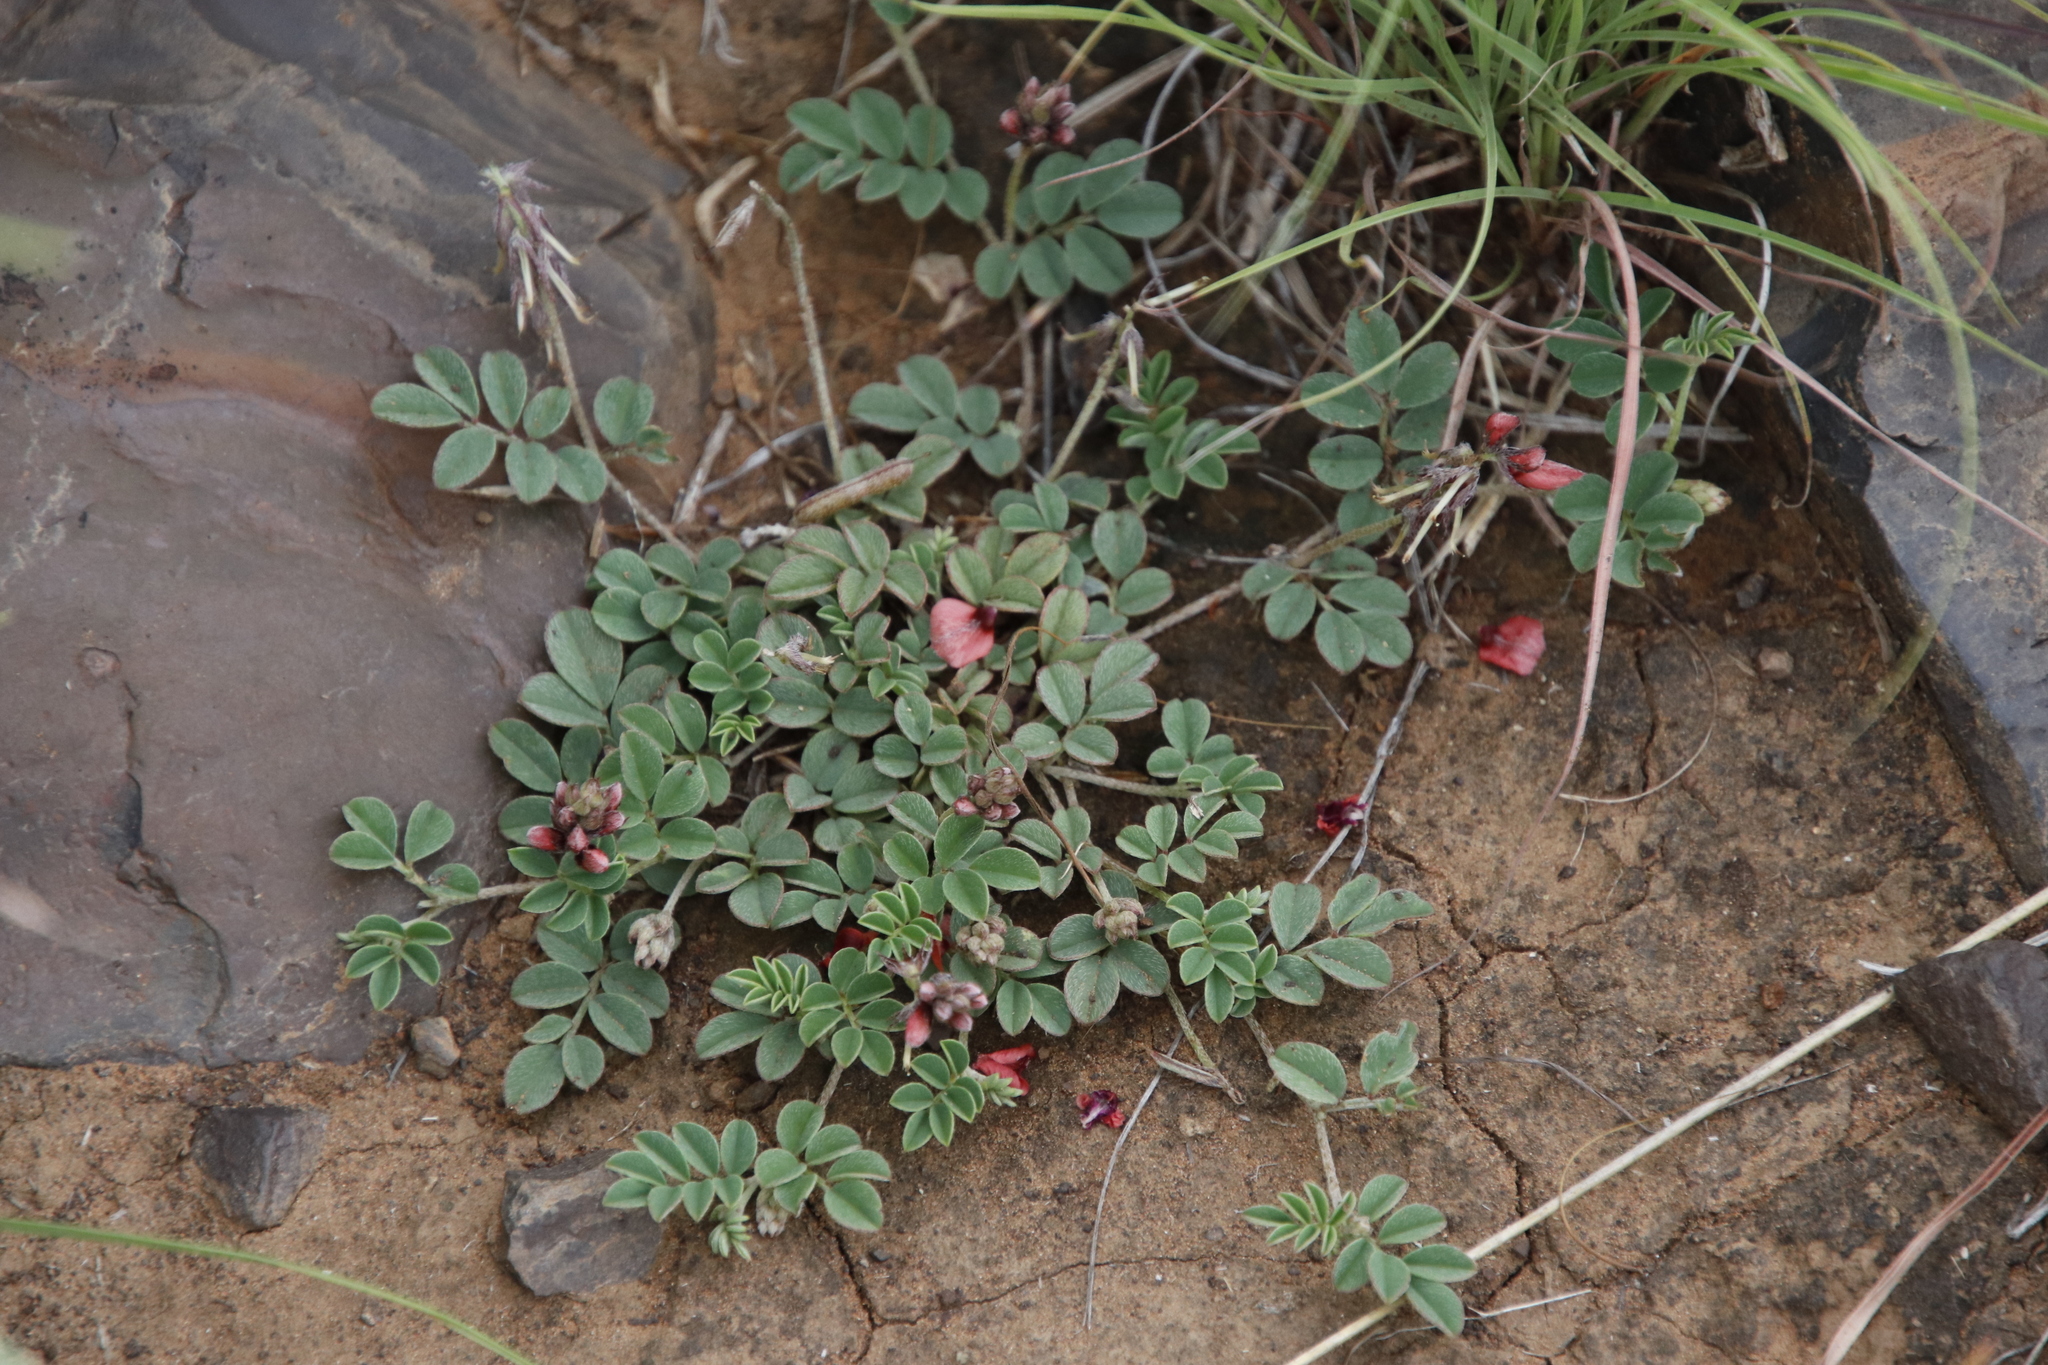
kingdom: Plantae
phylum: Tracheophyta
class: Magnoliopsida
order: Fabales
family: Fabaceae
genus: Indigofera
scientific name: Indigofera alternans
